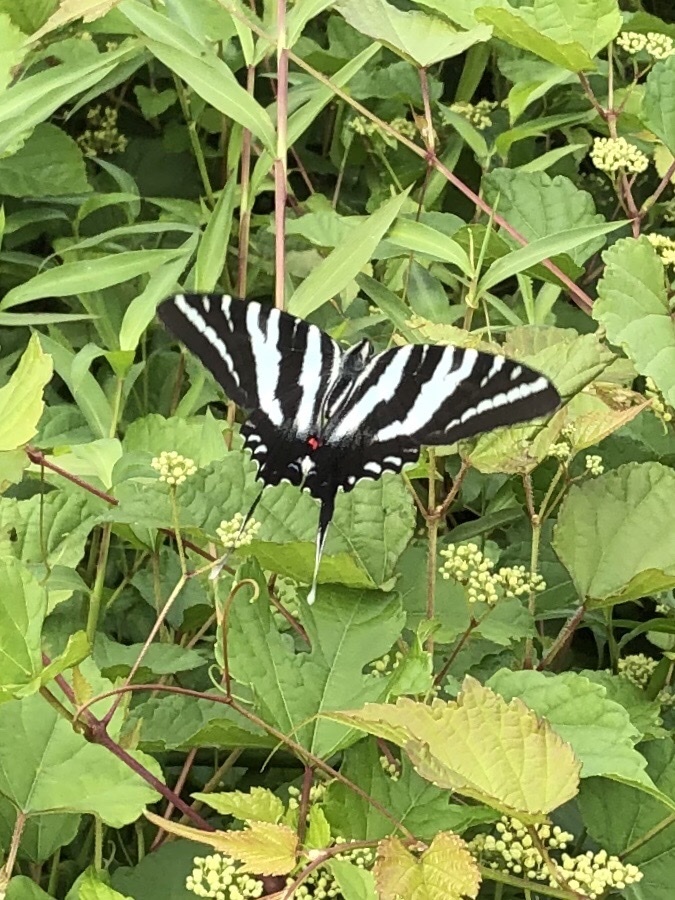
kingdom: Animalia
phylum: Arthropoda
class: Insecta
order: Lepidoptera
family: Papilionidae
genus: Protographium
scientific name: Protographium marcellus
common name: Zebra swallowtail
